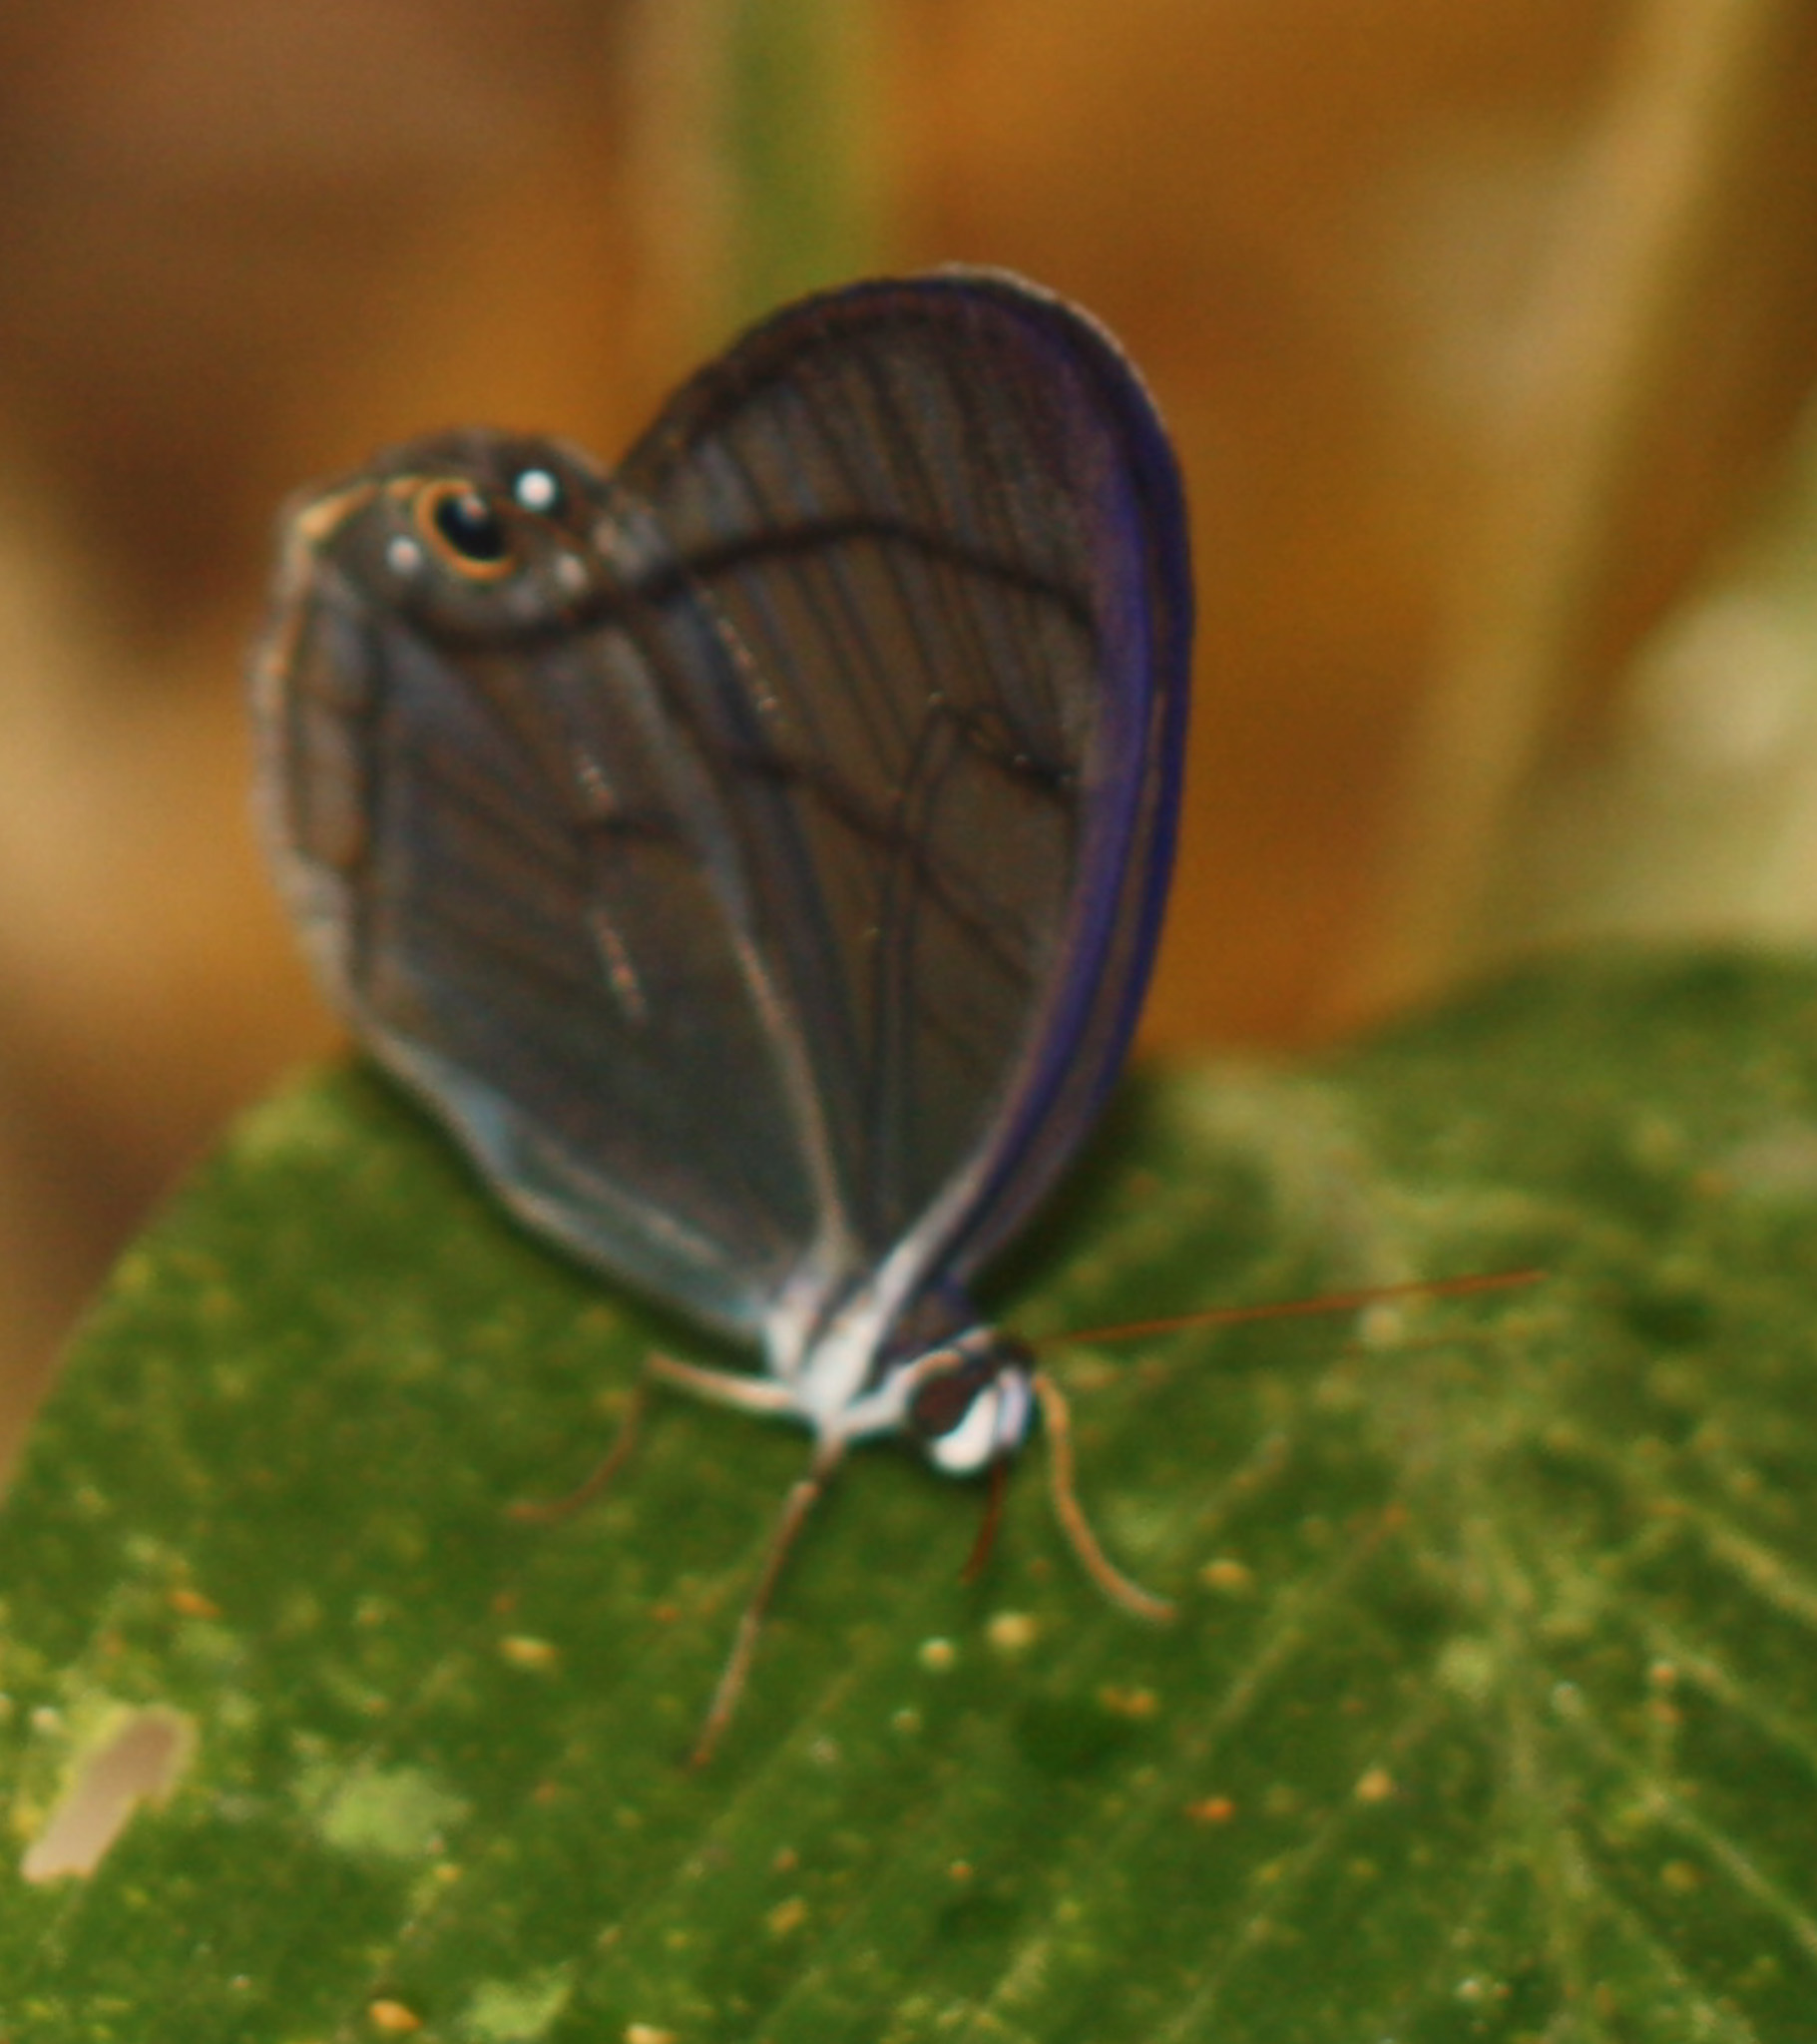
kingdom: Animalia
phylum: Arthropoda
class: Insecta
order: Lepidoptera
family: Nymphalidae
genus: Dulcedo
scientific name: Dulcedo polita
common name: Uncolored clearwing-satyr
